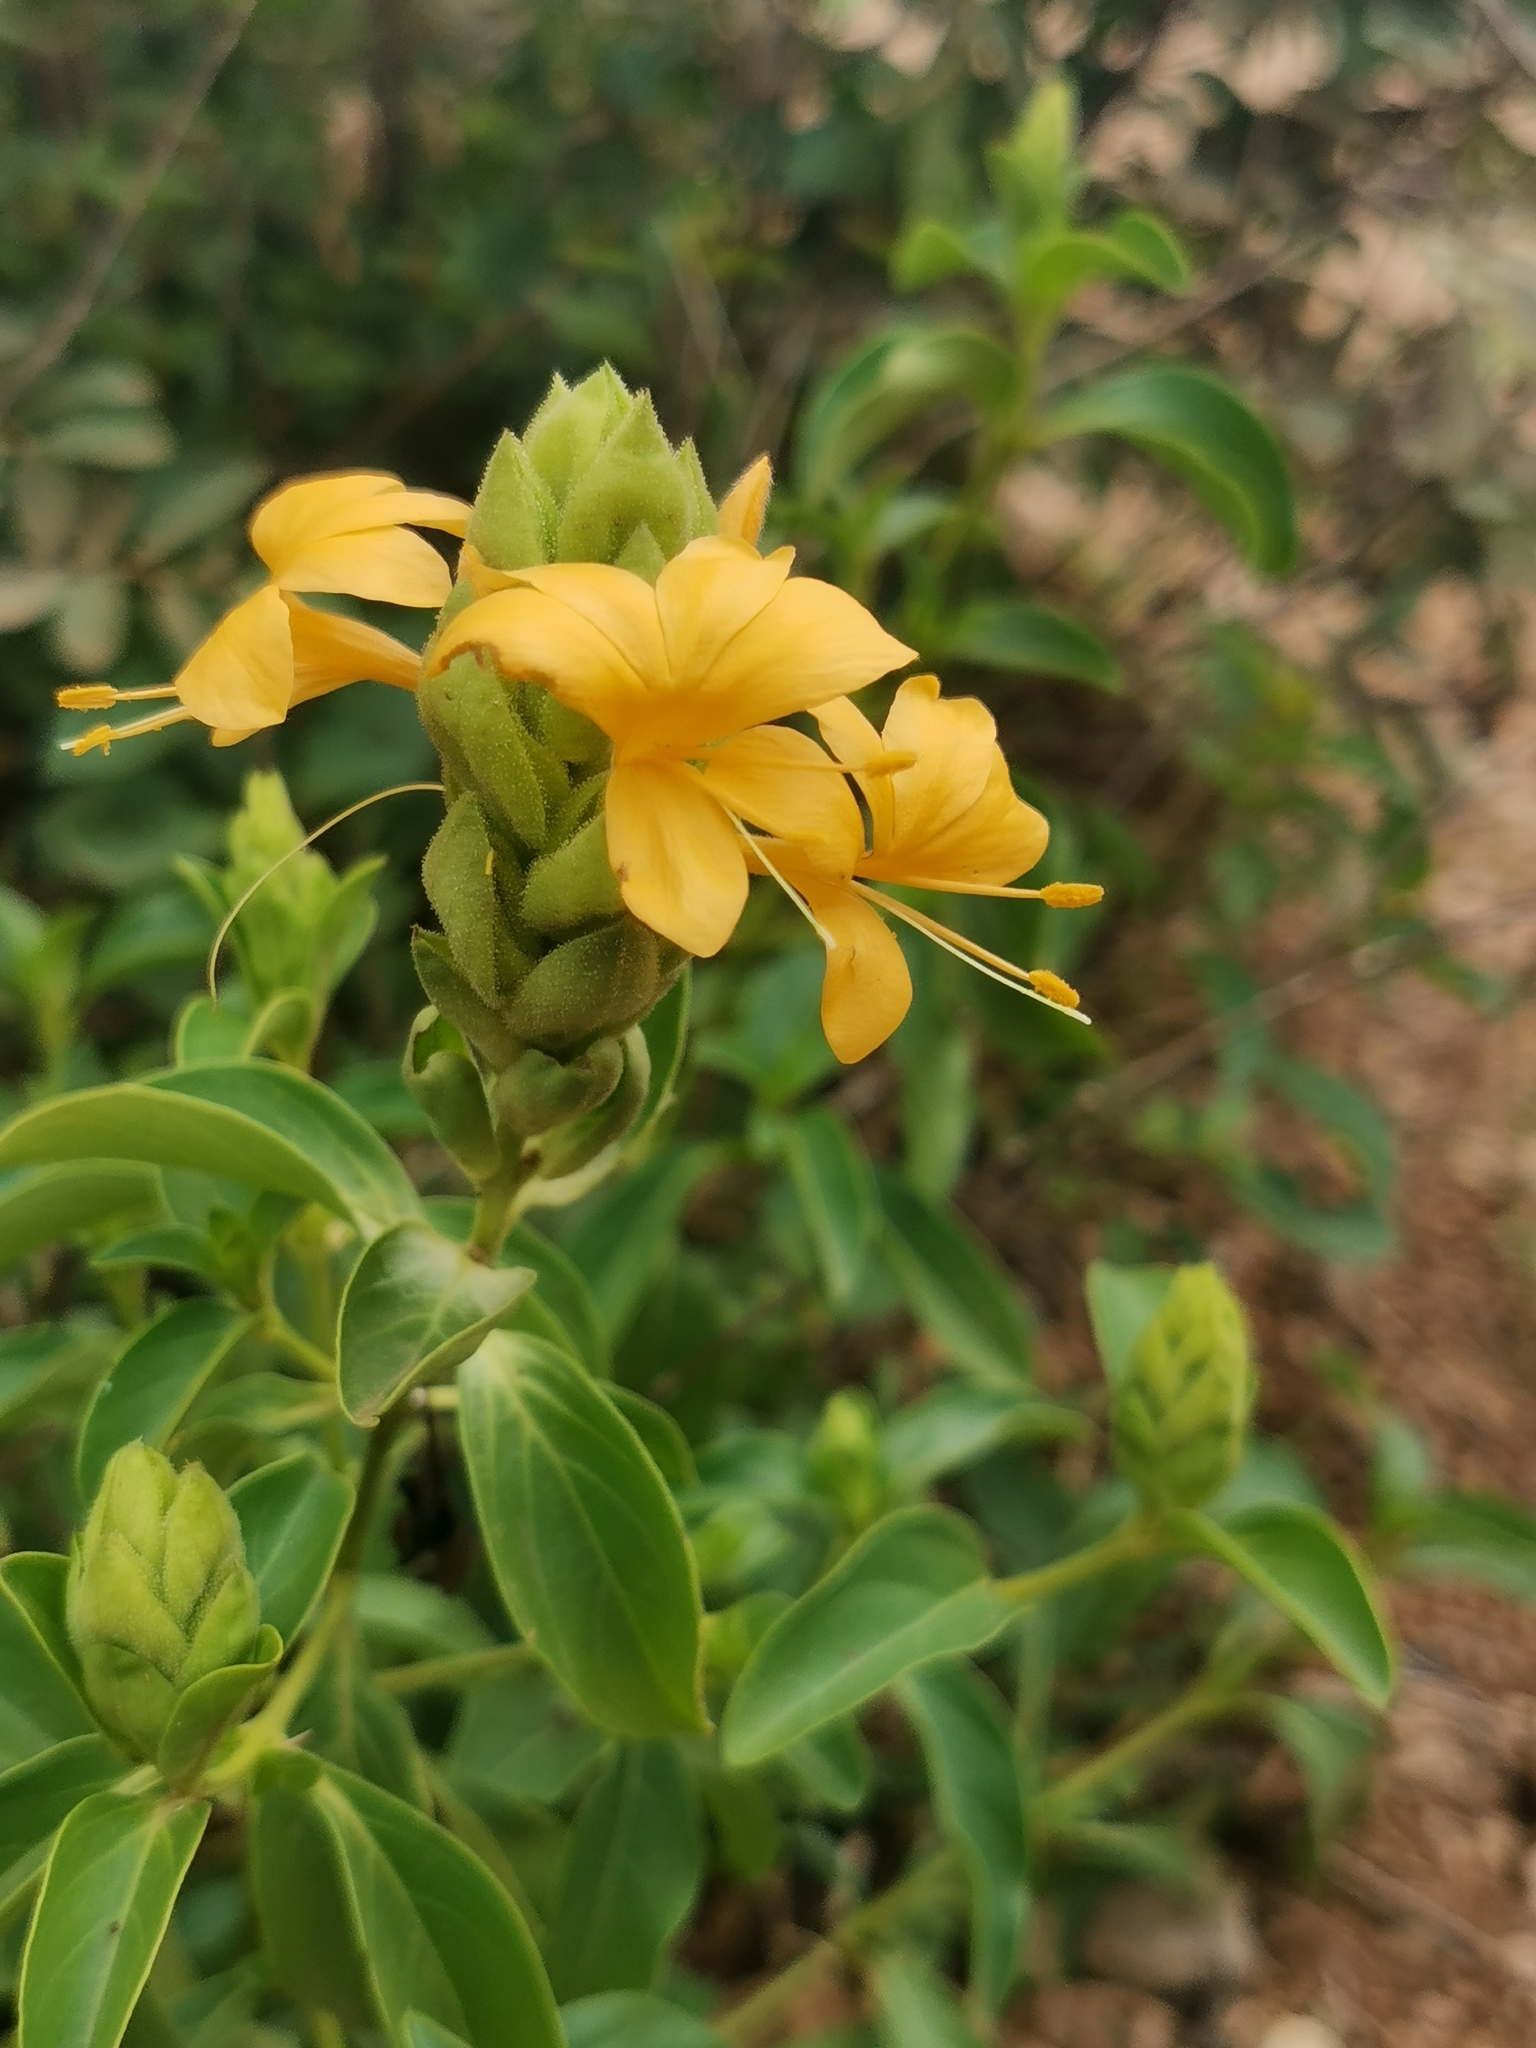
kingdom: Plantae
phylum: Tracheophyta
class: Magnoliopsida
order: Lamiales
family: Acanthaceae
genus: Barleria
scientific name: Barleria crossandriformis
